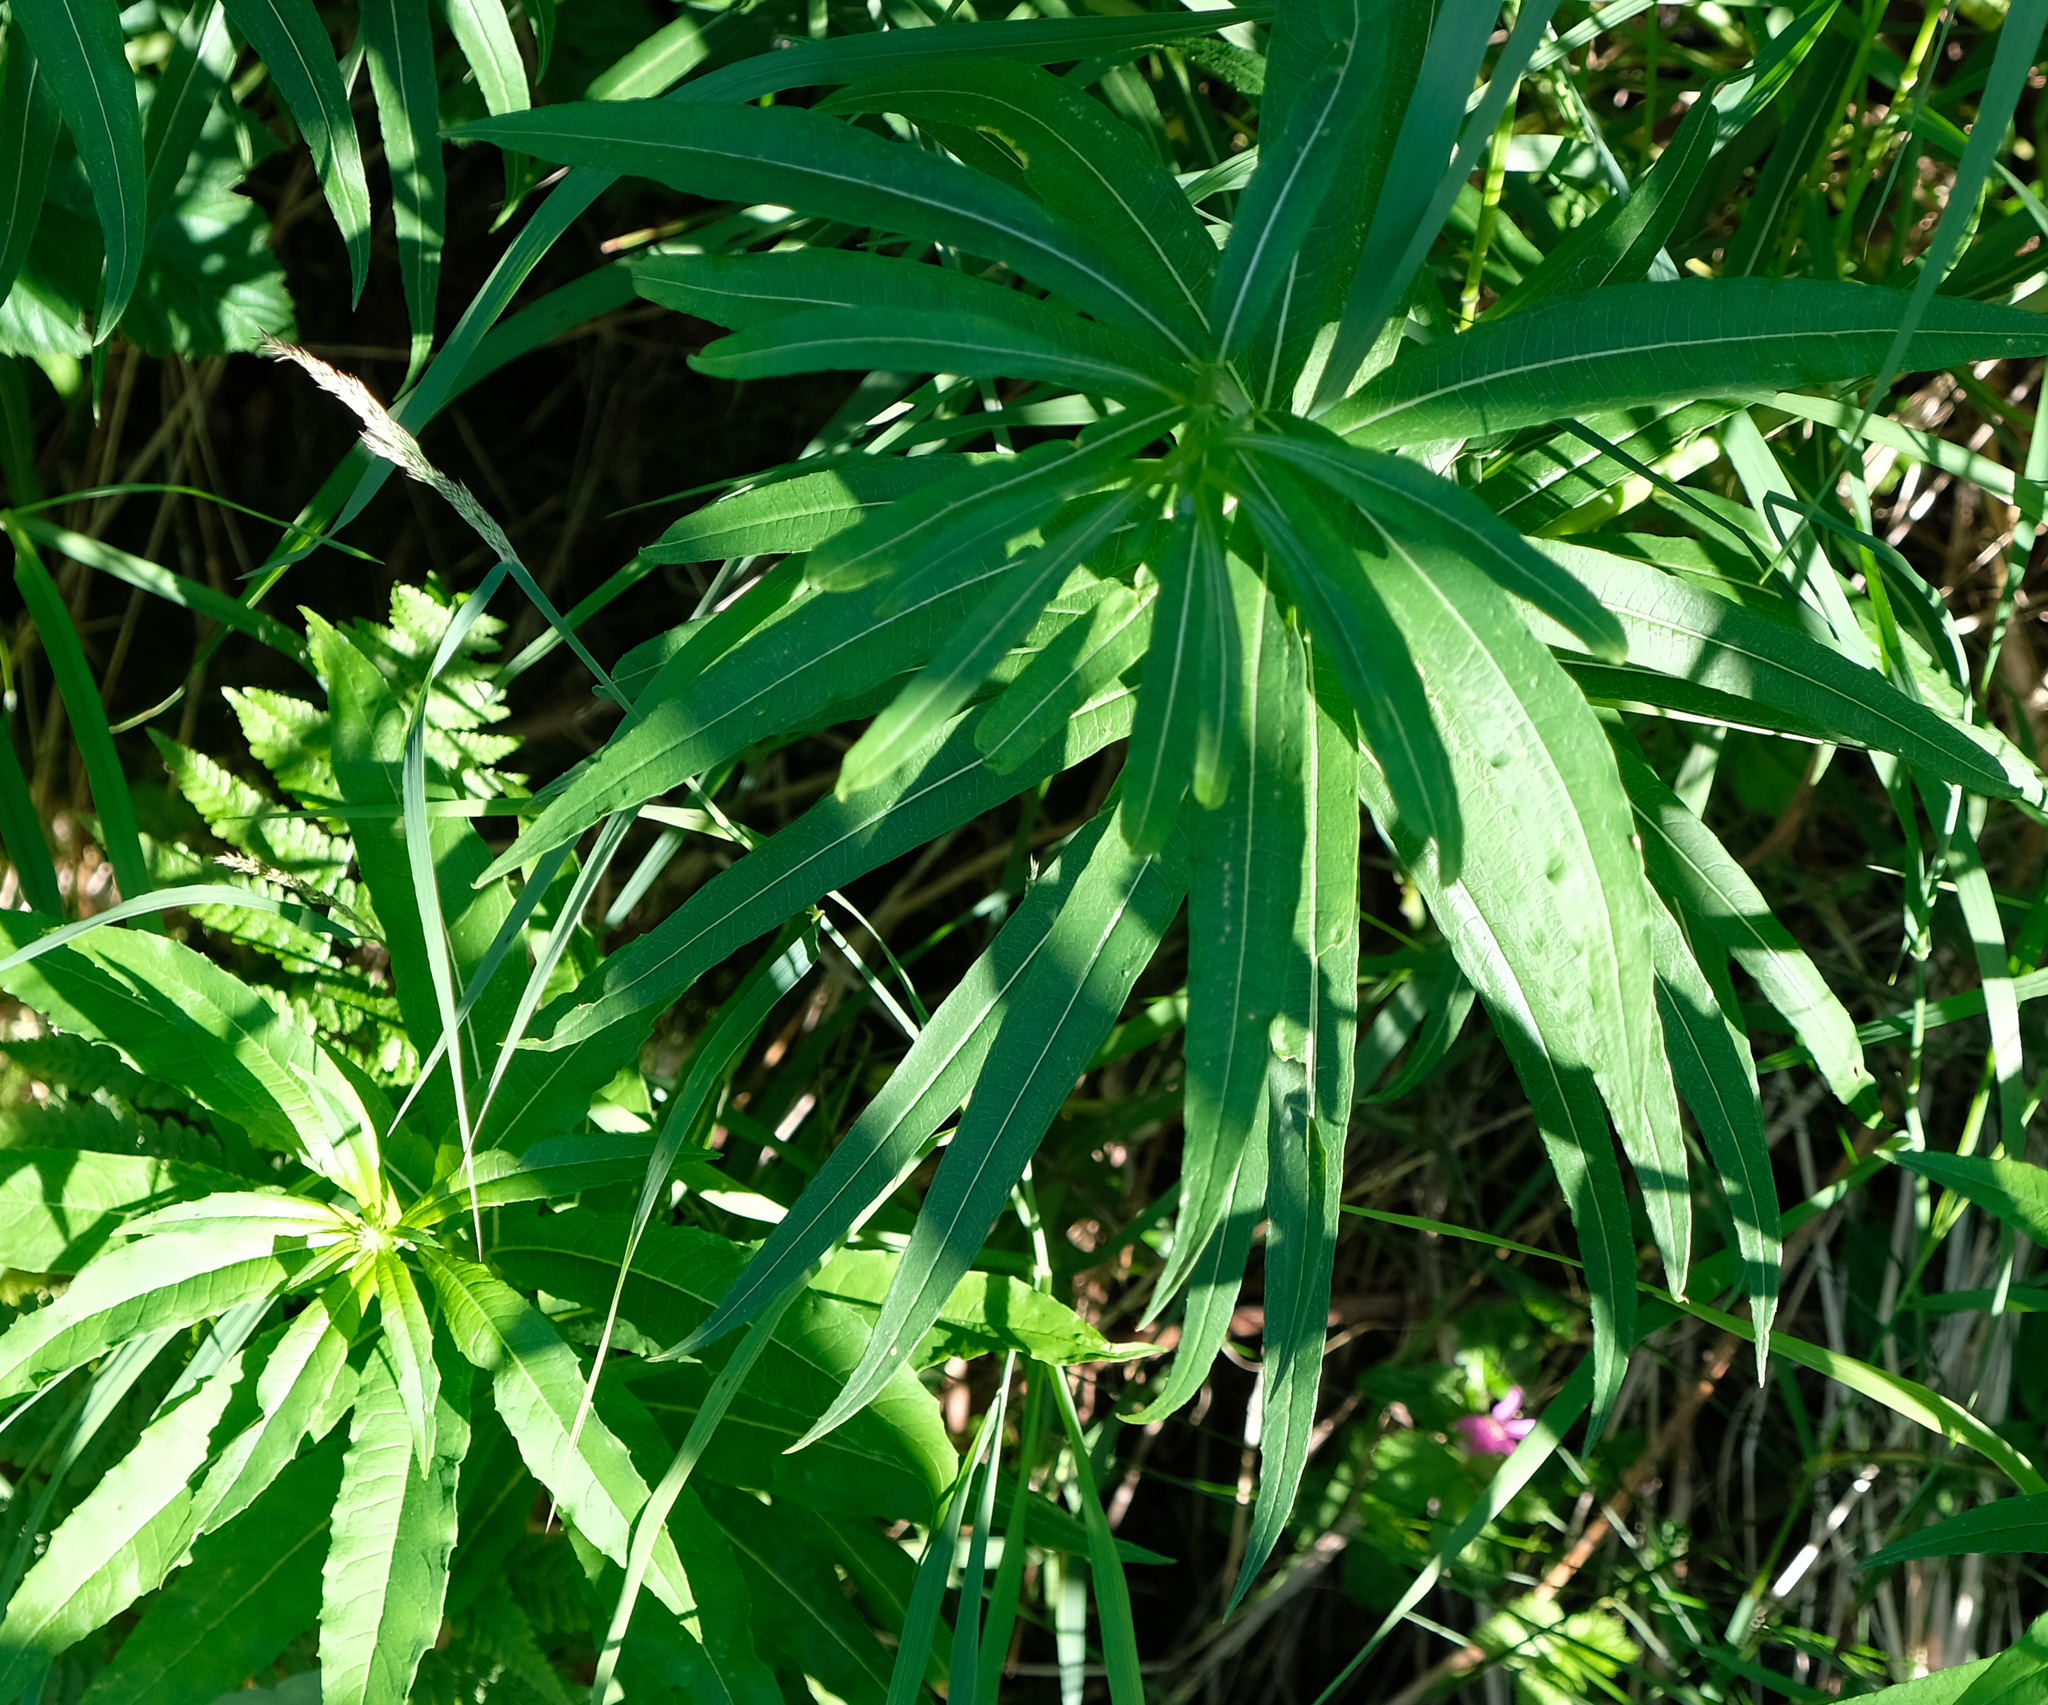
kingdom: Plantae
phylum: Tracheophyta
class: Magnoliopsida
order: Myrtales
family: Onagraceae
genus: Chamaenerion
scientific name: Chamaenerion angustifolium
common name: Fireweed
